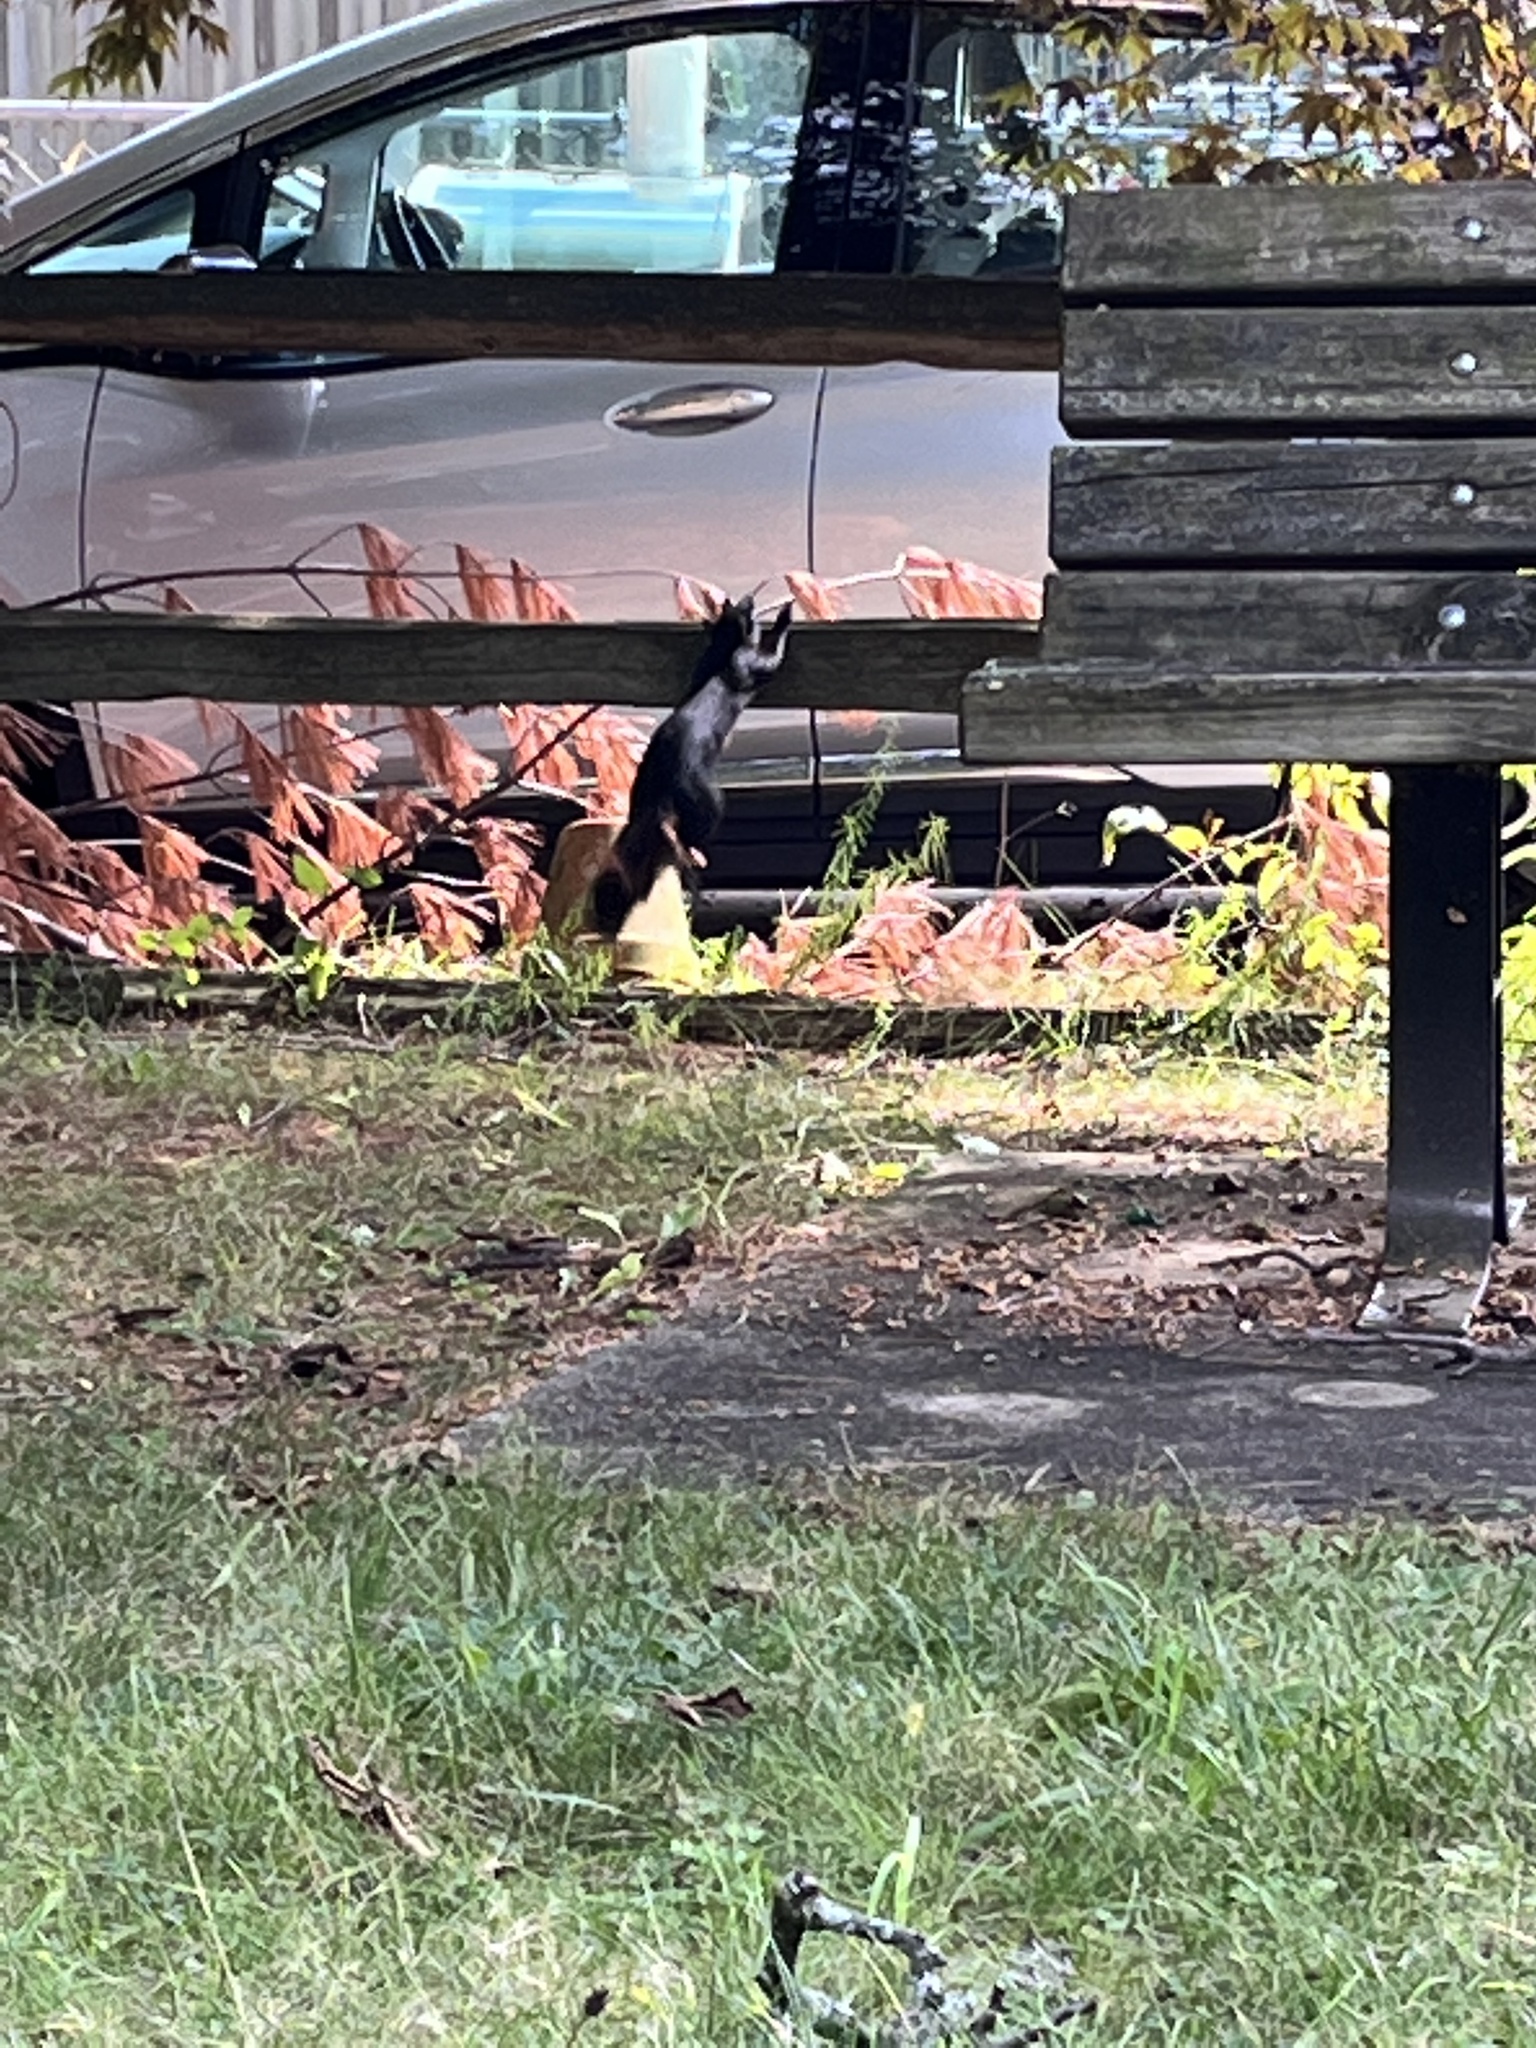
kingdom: Animalia
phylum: Chordata
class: Mammalia
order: Rodentia
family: Sciuridae
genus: Sciurus
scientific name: Sciurus carolinensis
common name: Eastern gray squirrel
